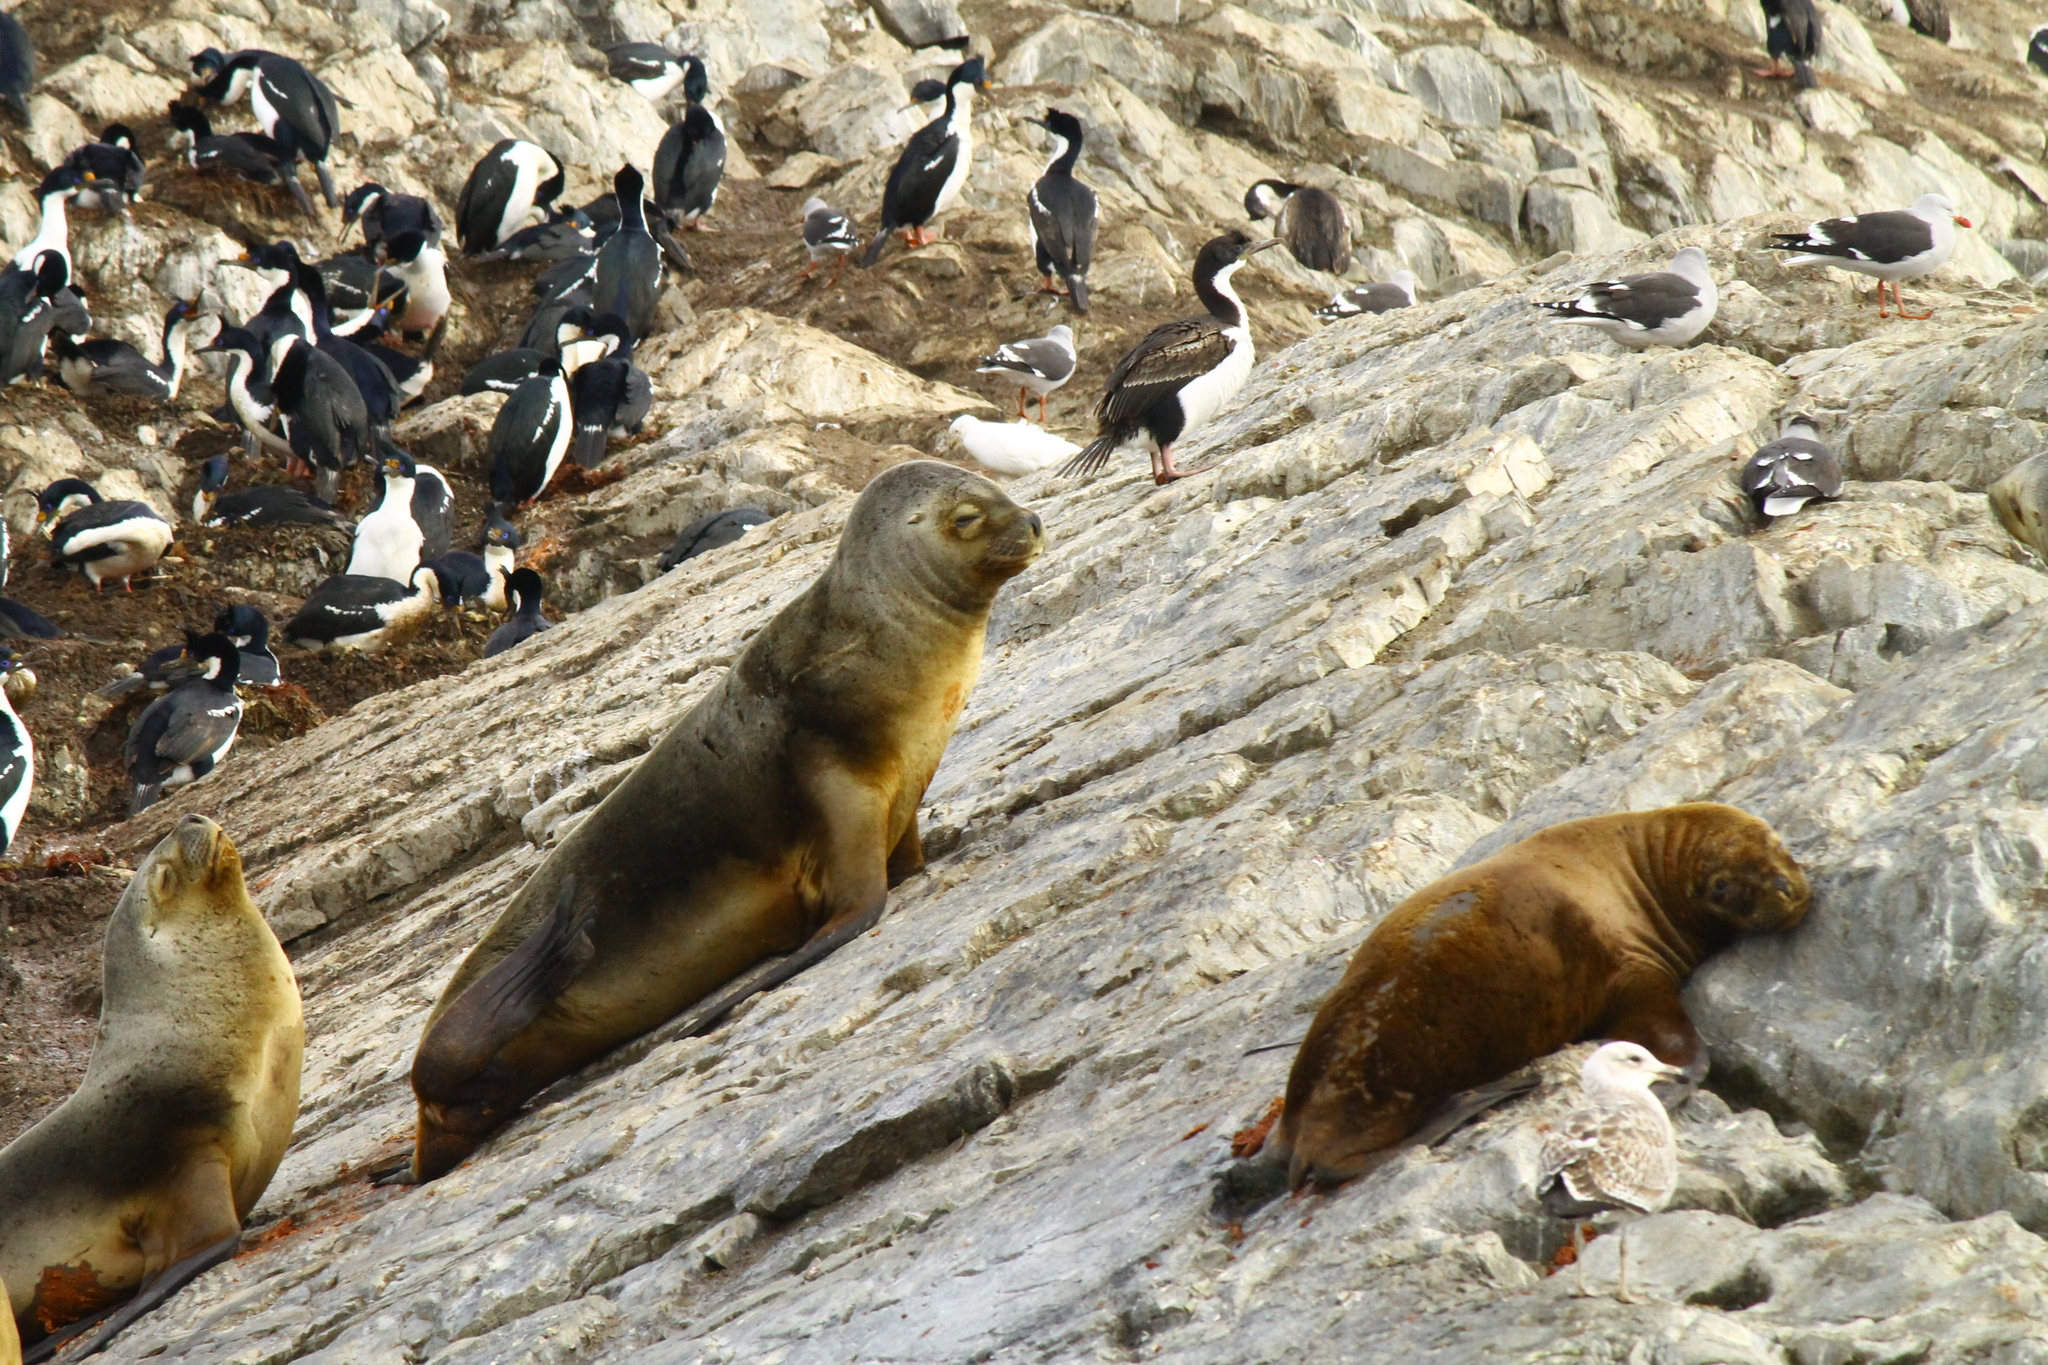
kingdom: Animalia
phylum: Chordata
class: Mammalia
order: Carnivora
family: Otariidae
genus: Otaria
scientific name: Otaria byronia
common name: South american sea lion
